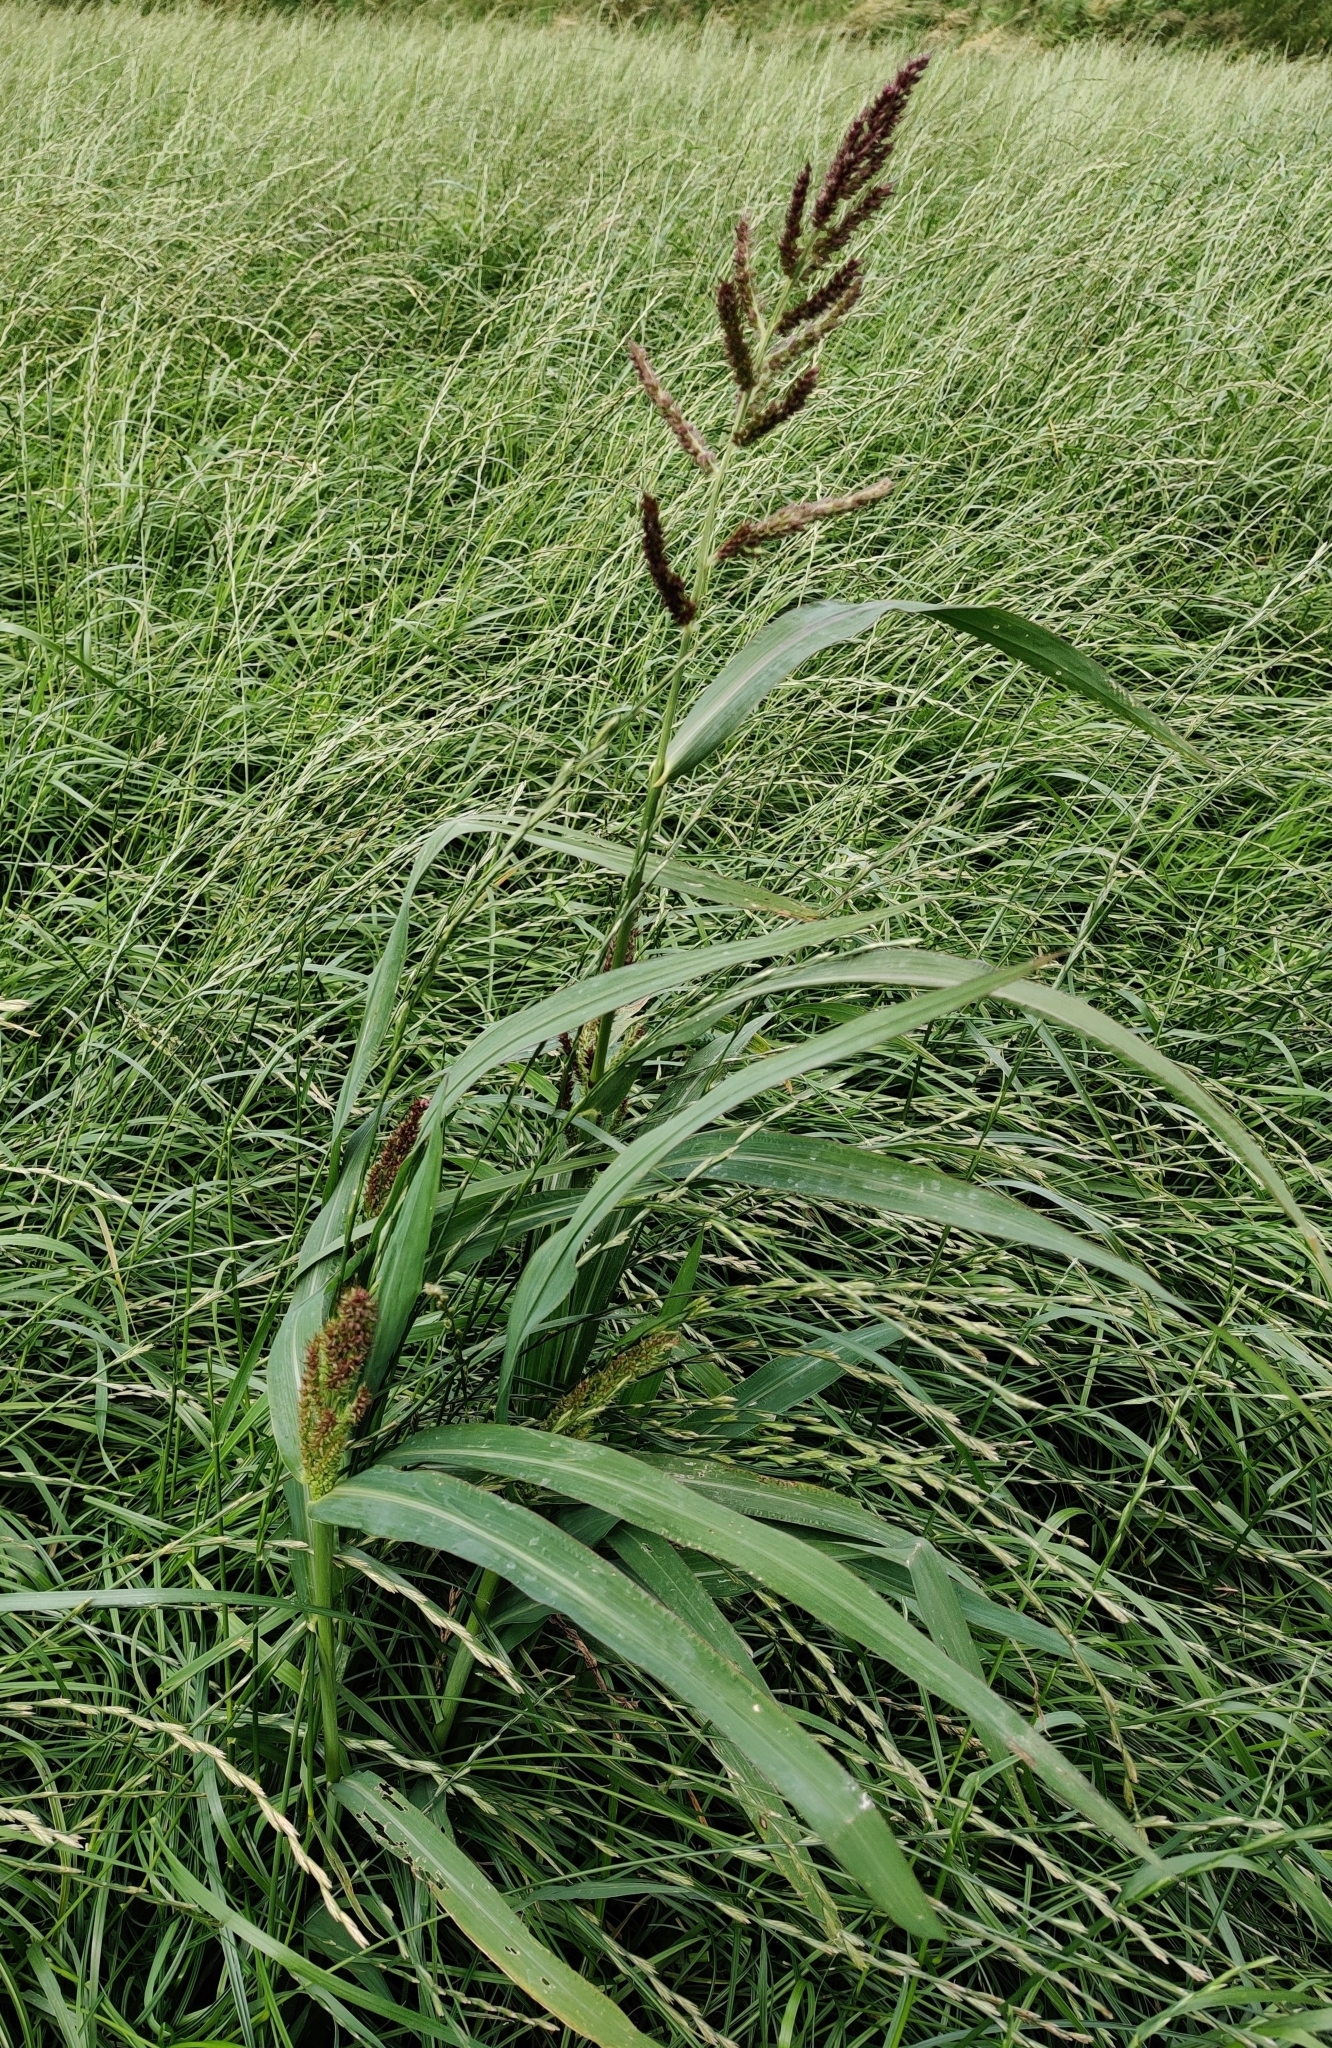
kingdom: Plantae
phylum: Tracheophyta
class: Liliopsida
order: Poales
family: Poaceae
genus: Echinochloa
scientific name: Echinochloa crus-galli
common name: Cockspur
